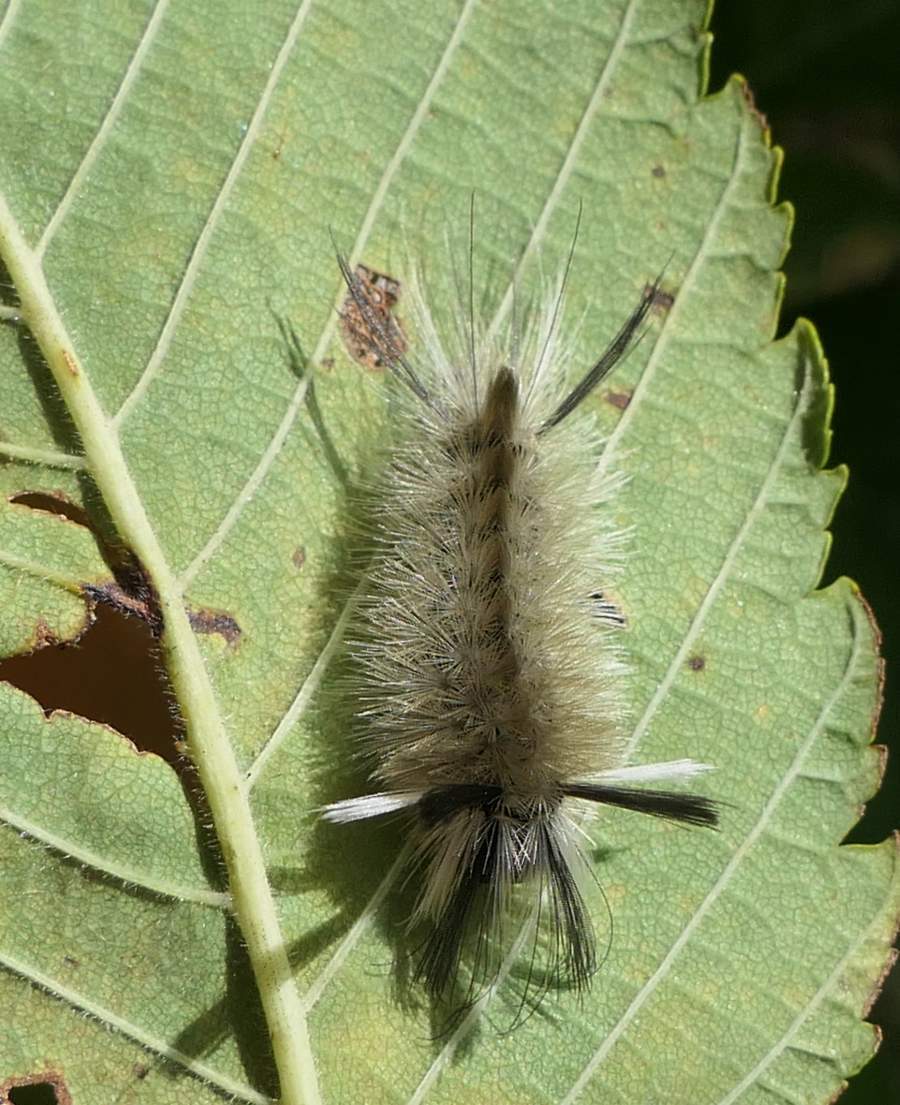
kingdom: Animalia
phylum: Arthropoda
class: Insecta
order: Lepidoptera
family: Erebidae
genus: Halysidota
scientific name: Halysidota tessellaris
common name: Banded tussock moth
